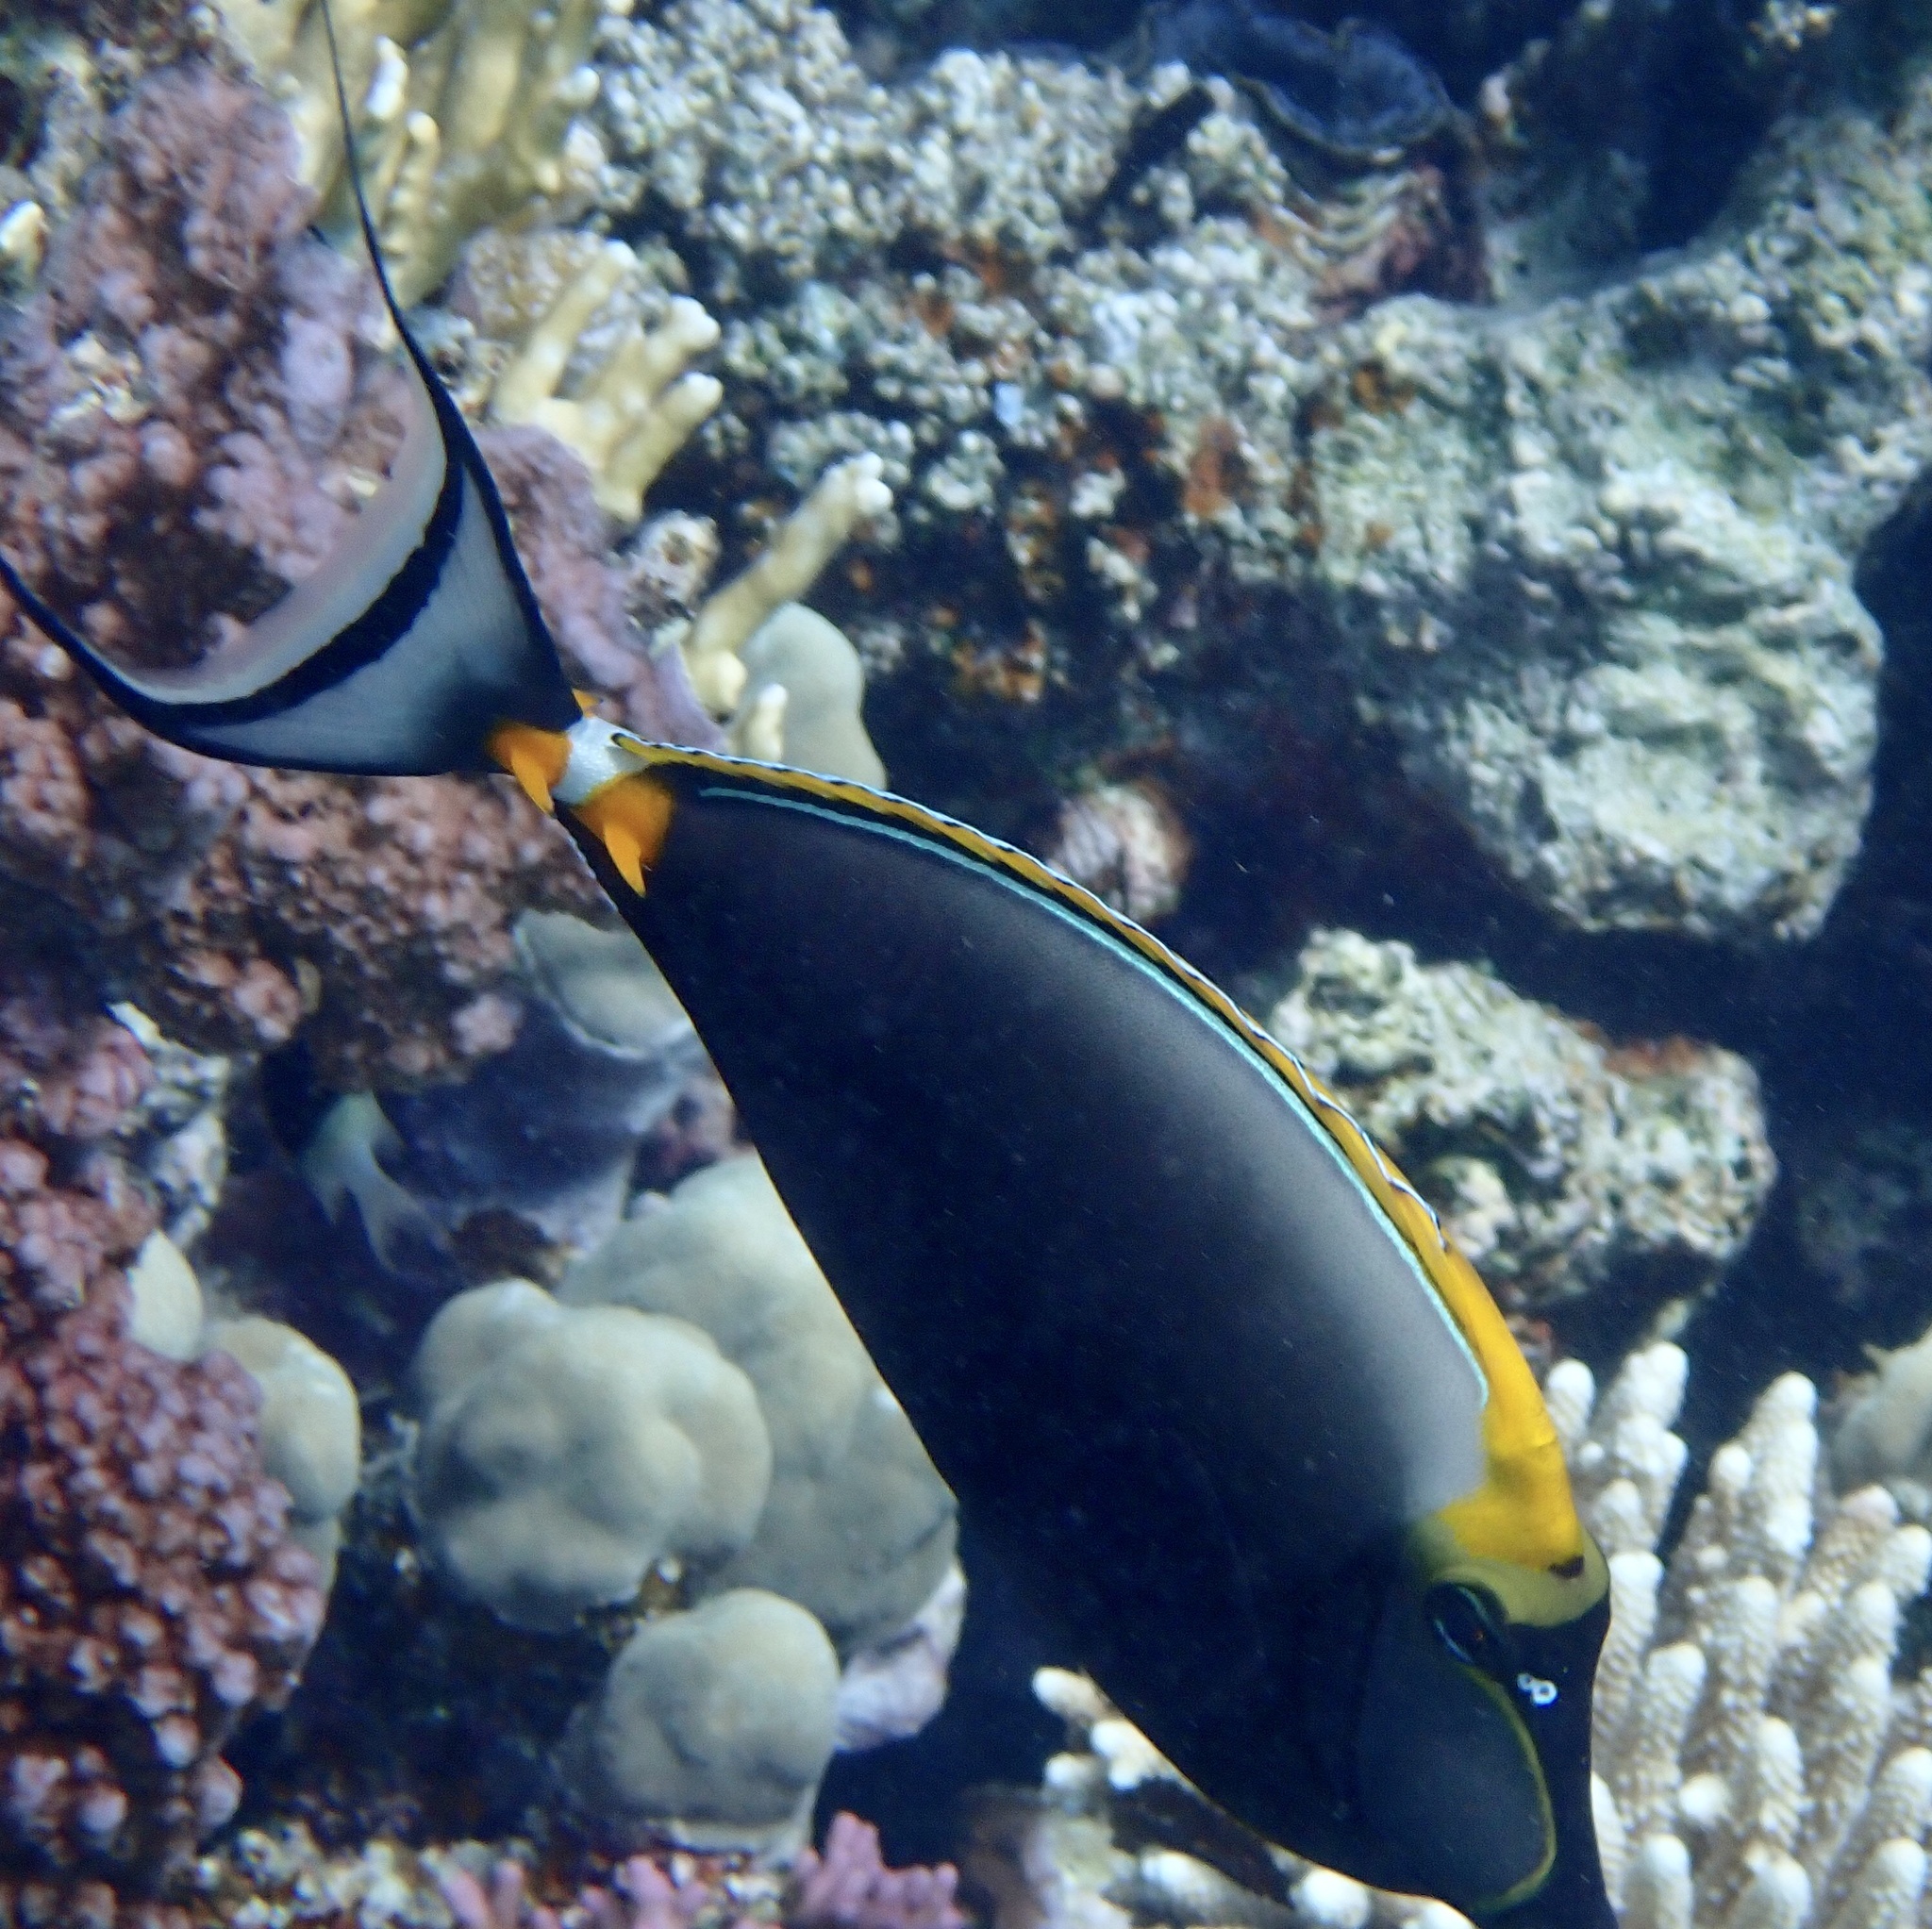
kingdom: Animalia
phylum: Chordata
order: Perciformes
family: Acanthuridae
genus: Naso
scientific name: Naso elegans
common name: Orangespine unicornfish
